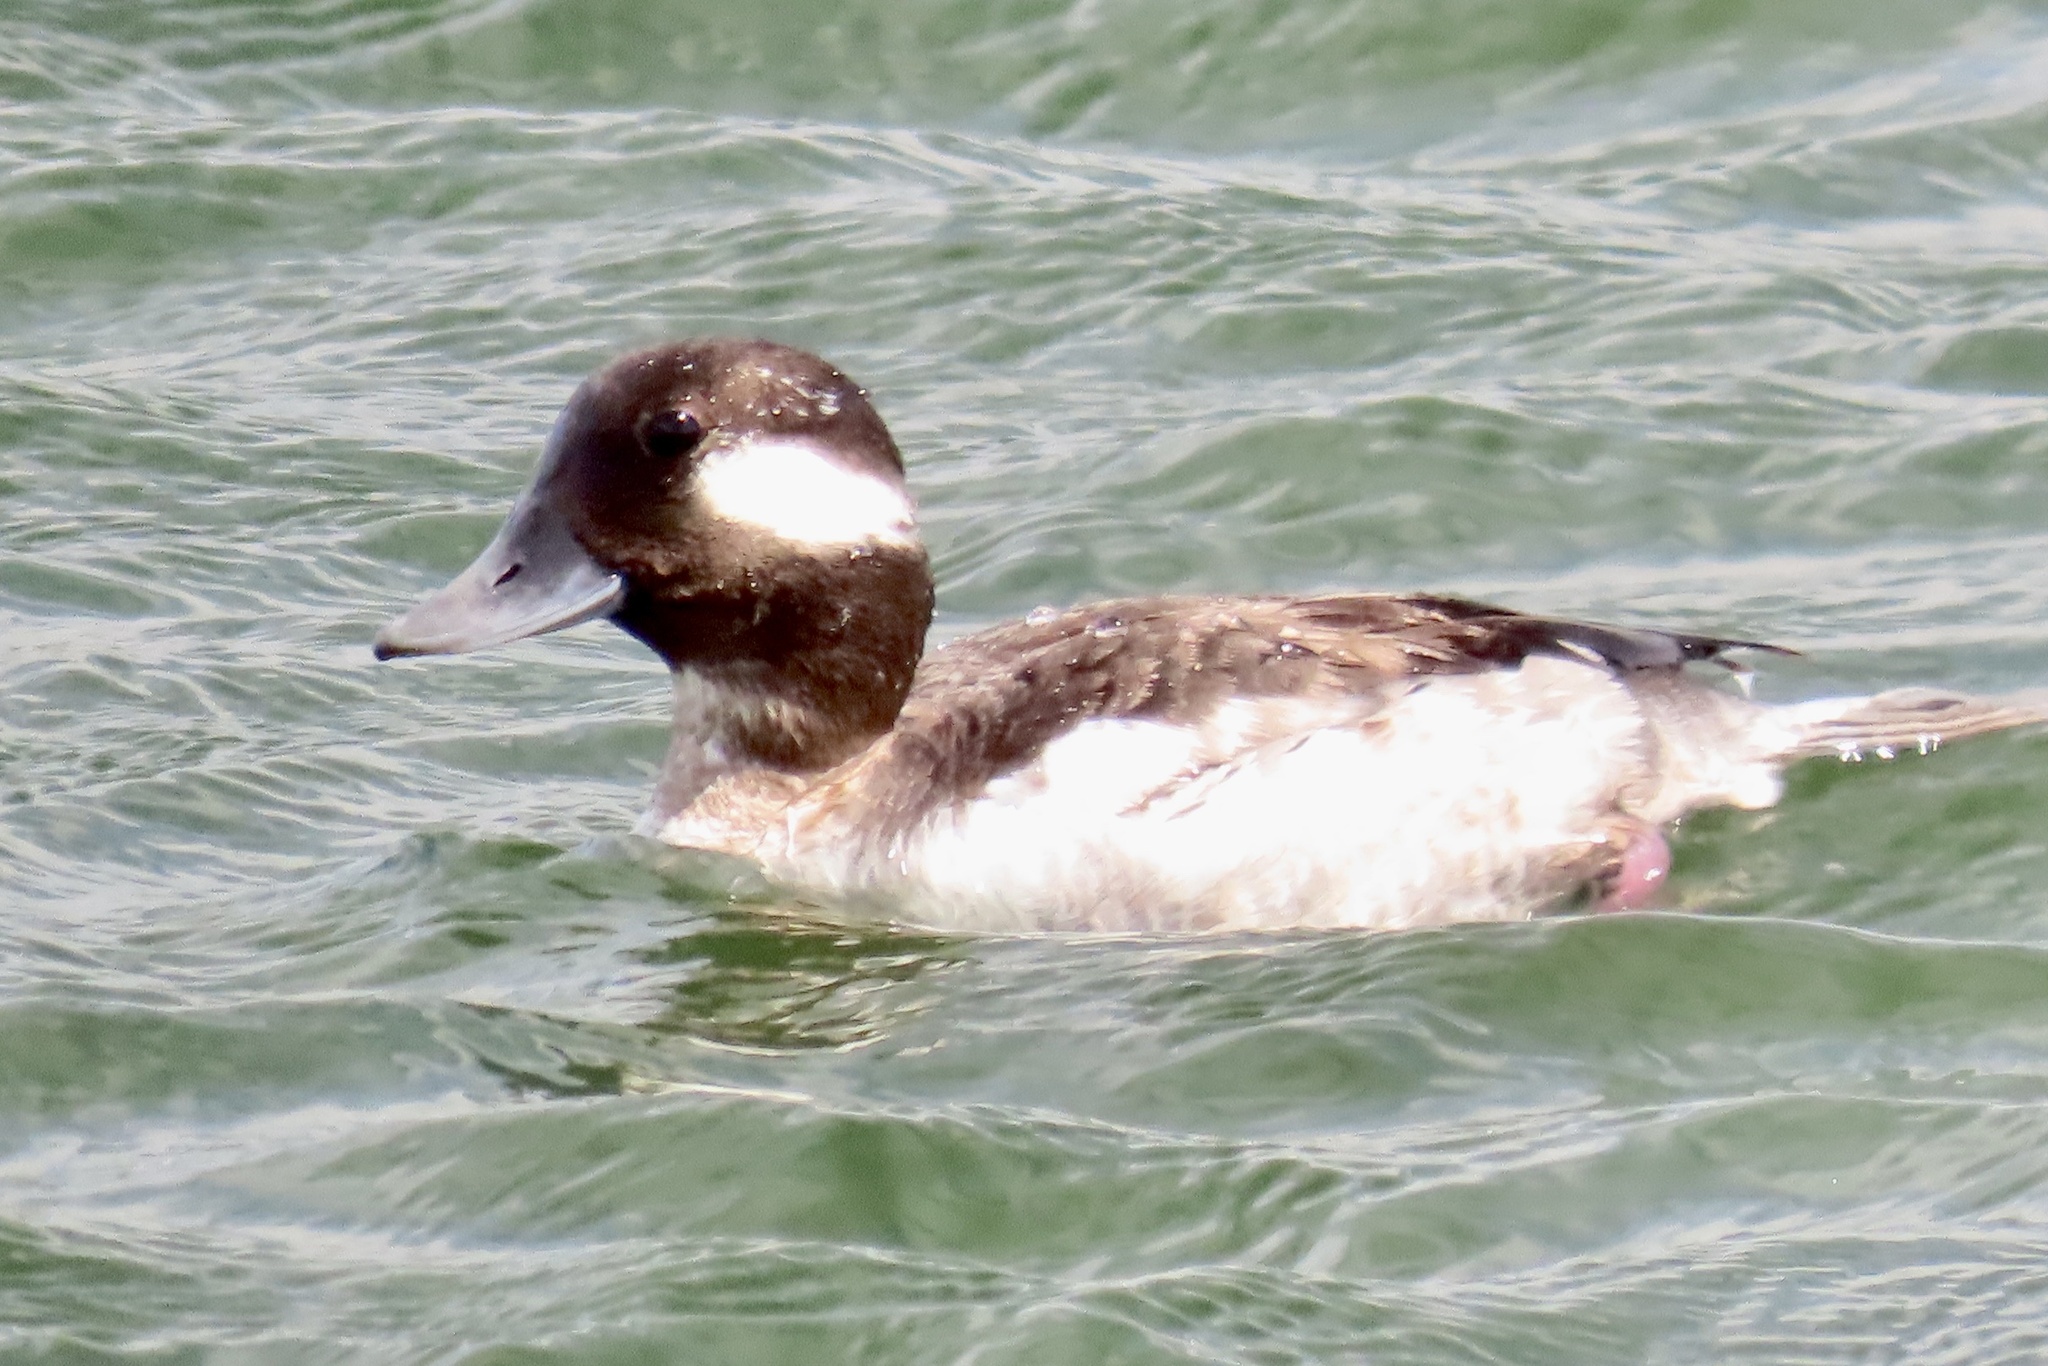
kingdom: Animalia
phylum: Chordata
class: Aves
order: Anseriformes
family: Anatidae
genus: Bucephala
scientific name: Bucephala albeola
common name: Bufflehead
